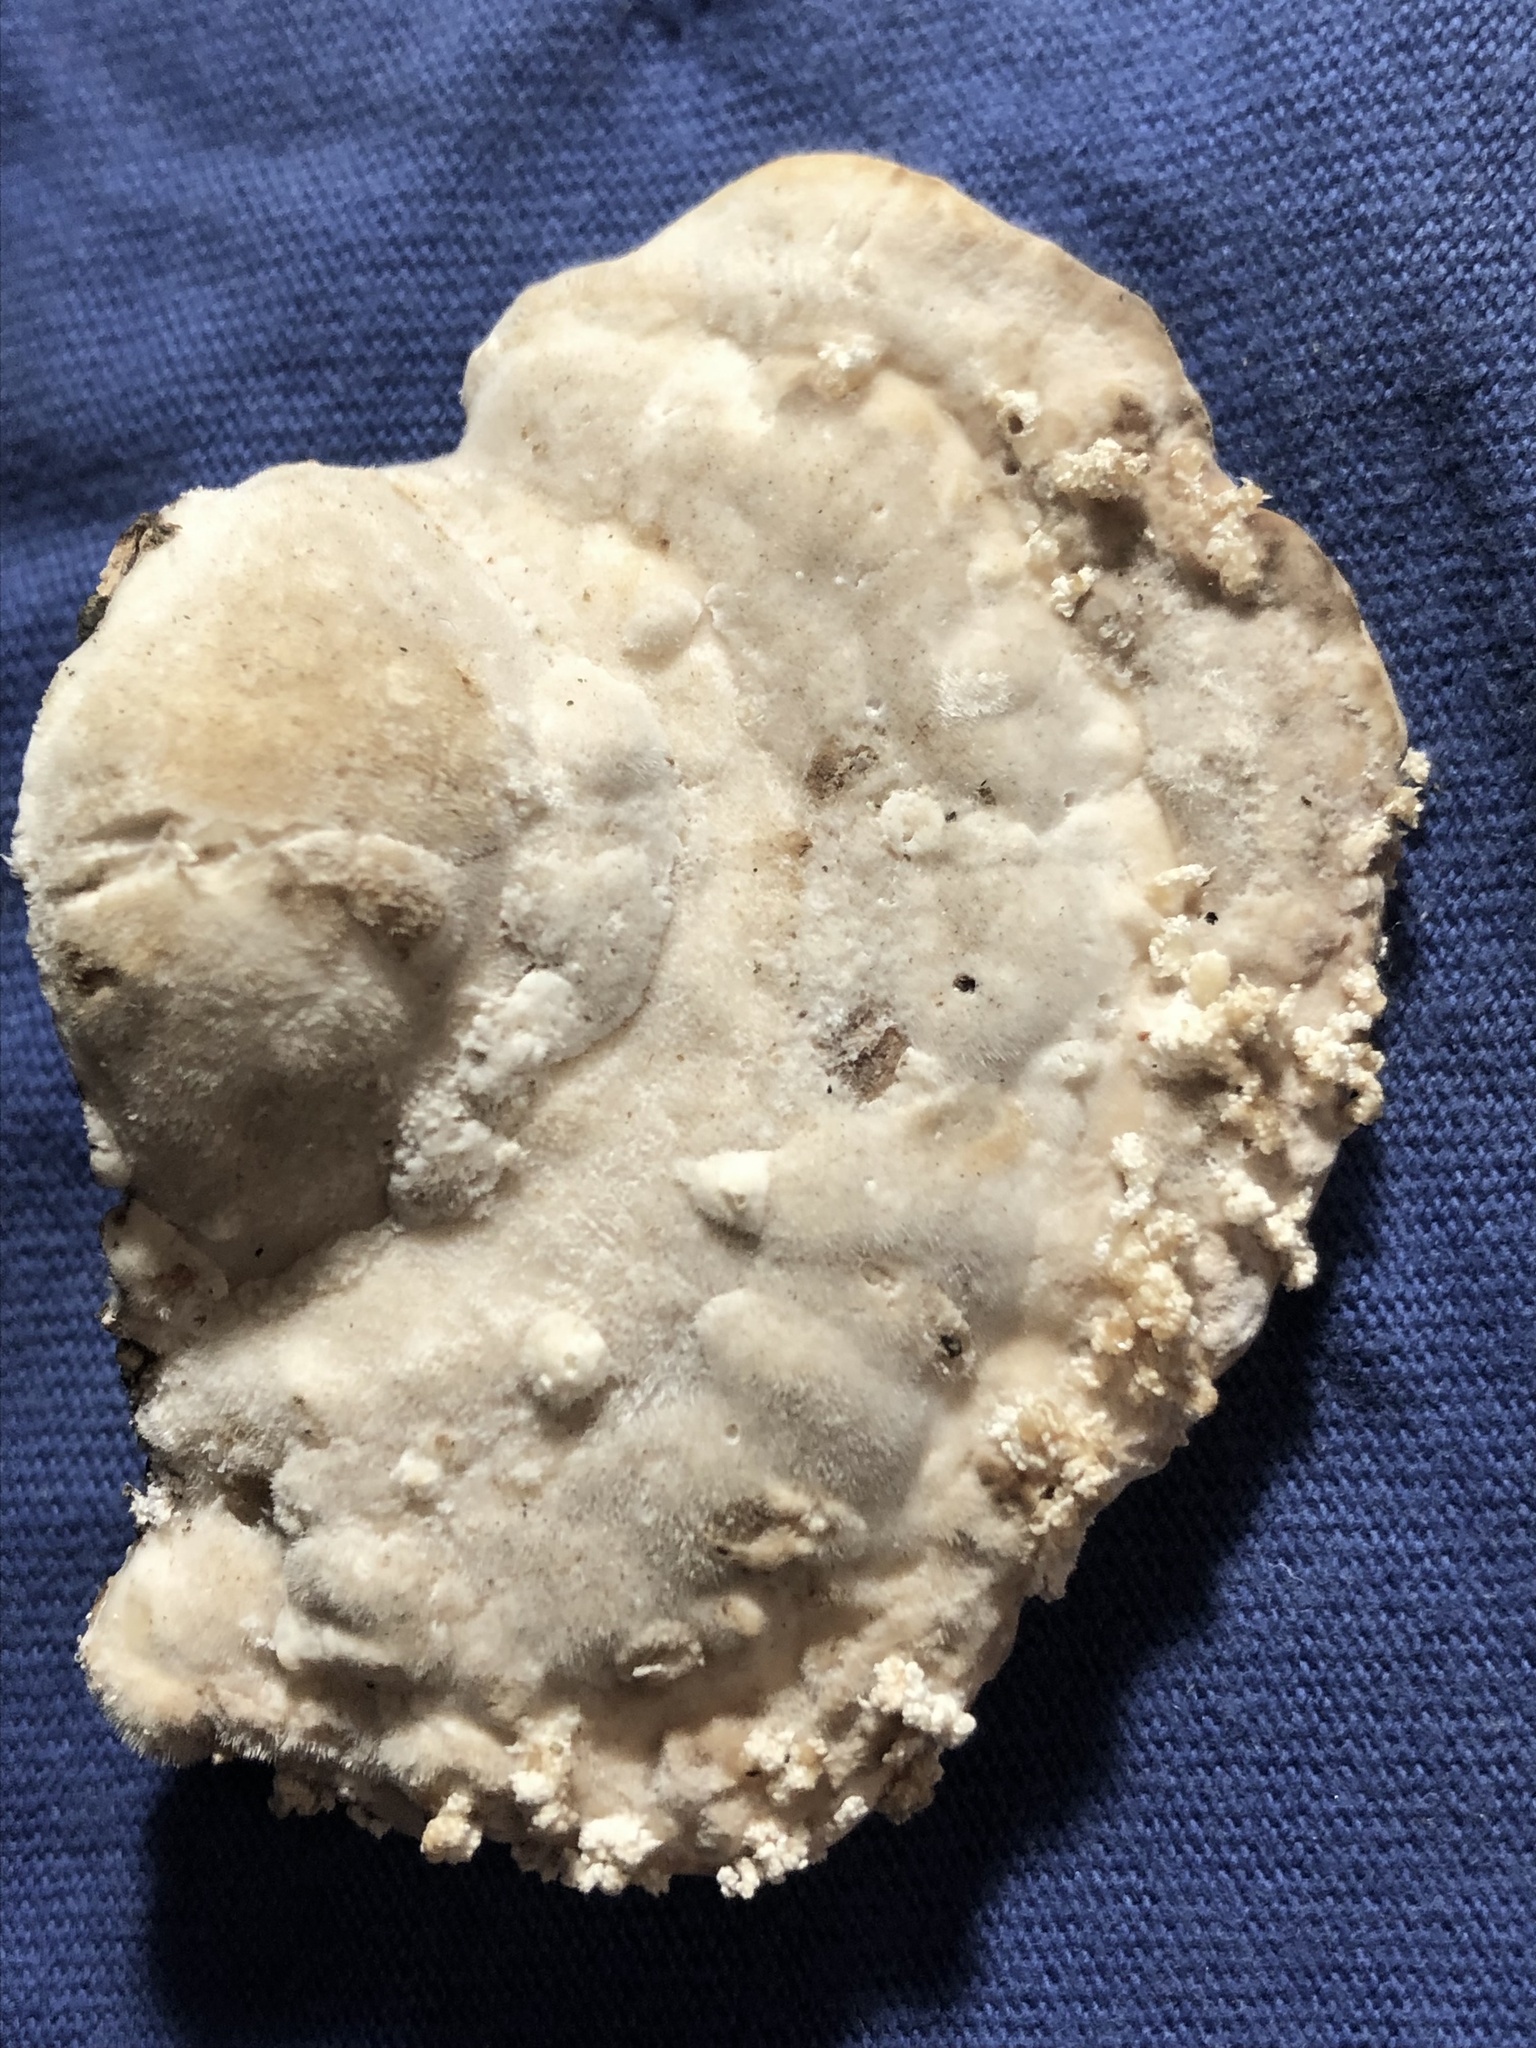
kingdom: Fungi
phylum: Basidiomycota
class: Agaricomycetes
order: Polyporales
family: Polyporaceae
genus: Trametes
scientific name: Trametes gibbosa
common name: Lumpy bracket
